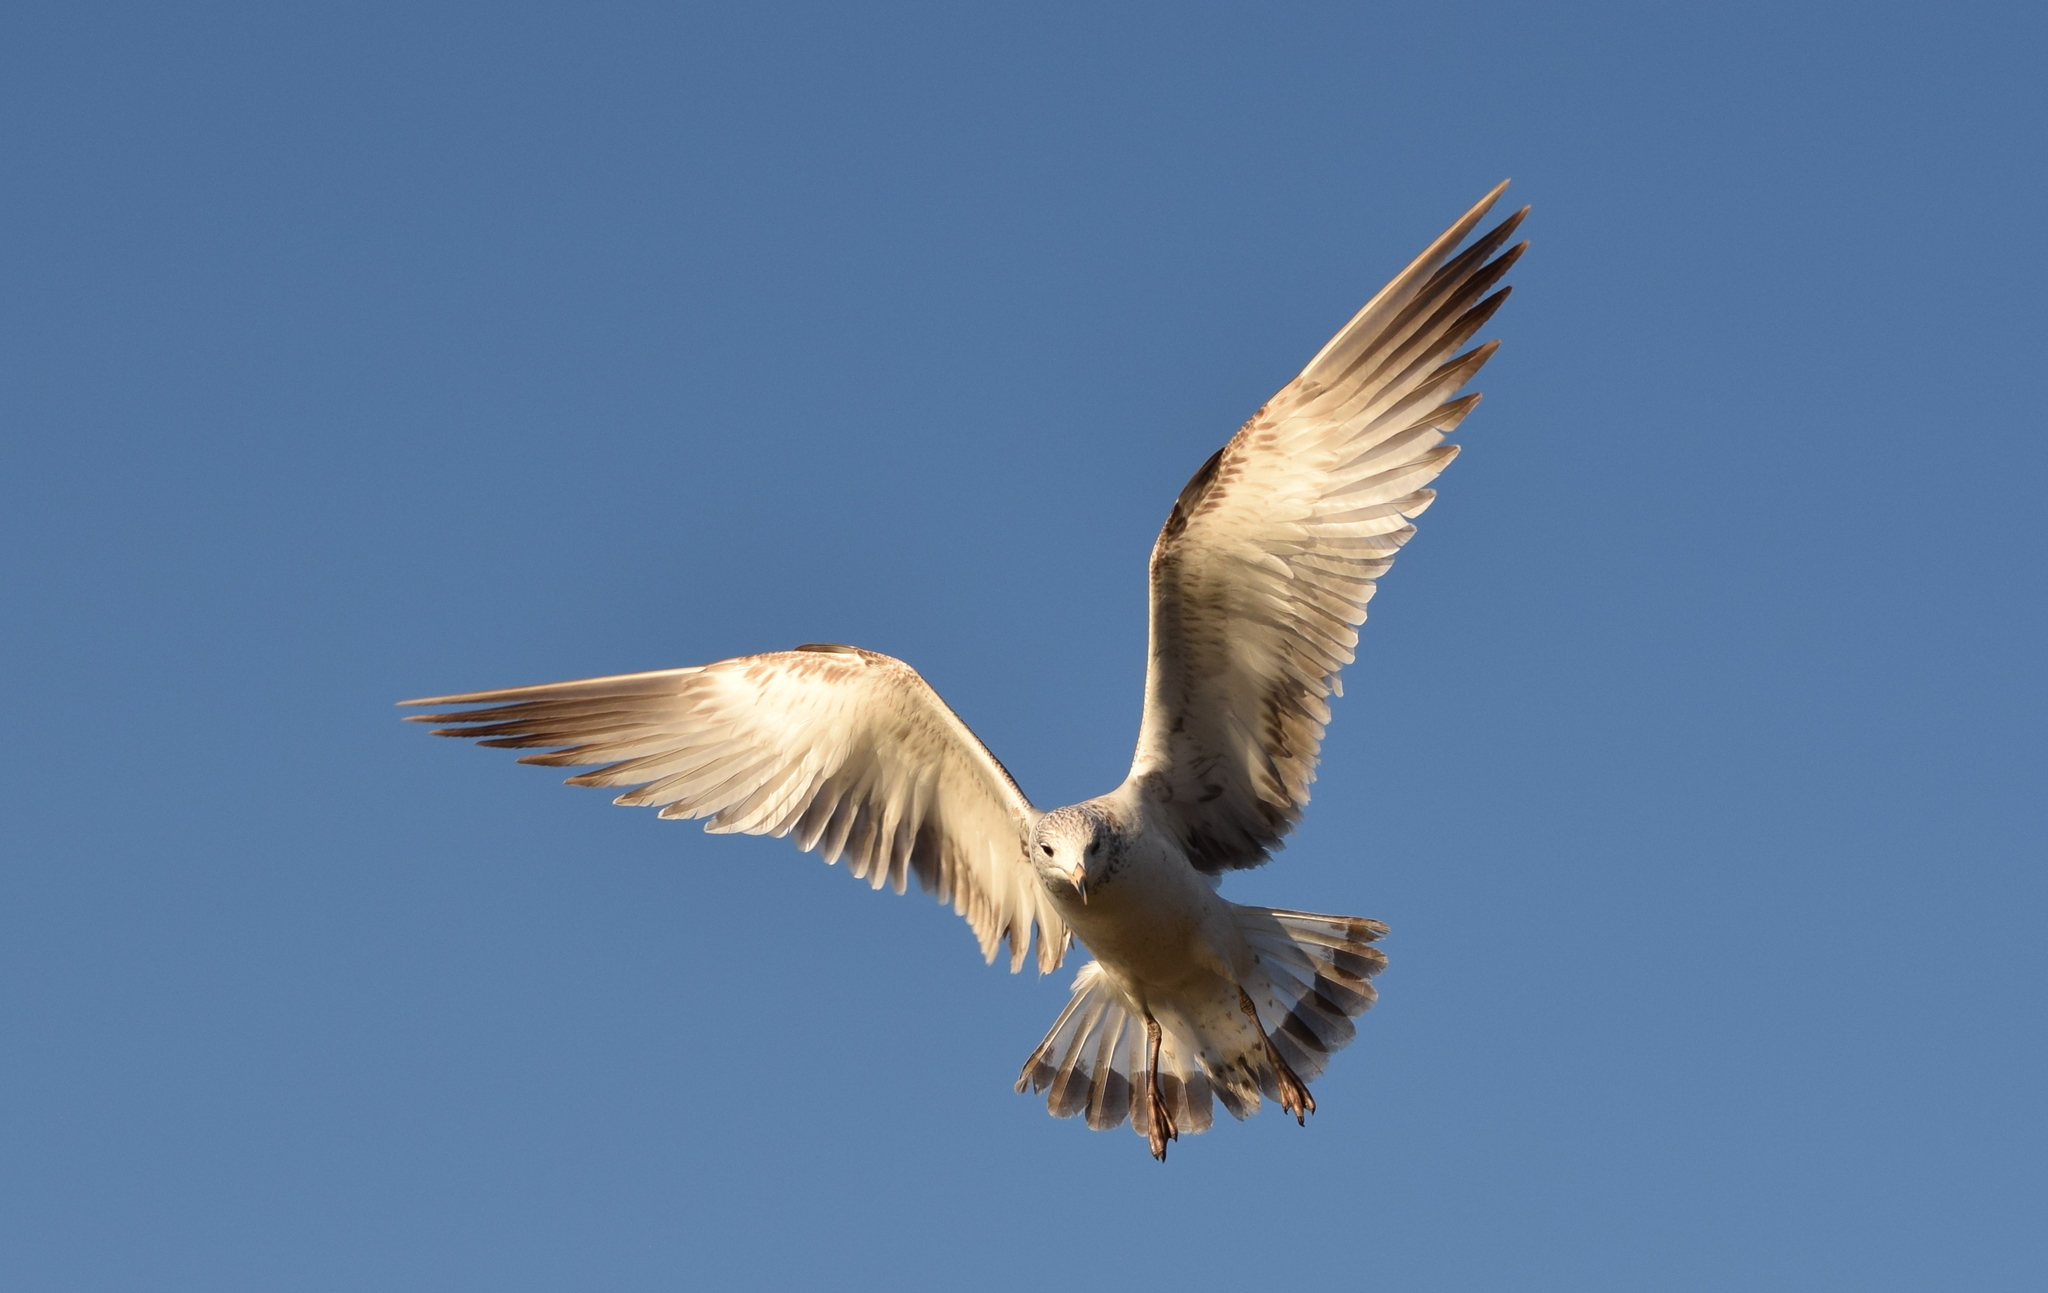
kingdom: Animalia
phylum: Chordata
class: Aves
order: Charadriiformes
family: Laridae
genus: Larus
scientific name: Larus delawarensis
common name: Ring-billed gull
